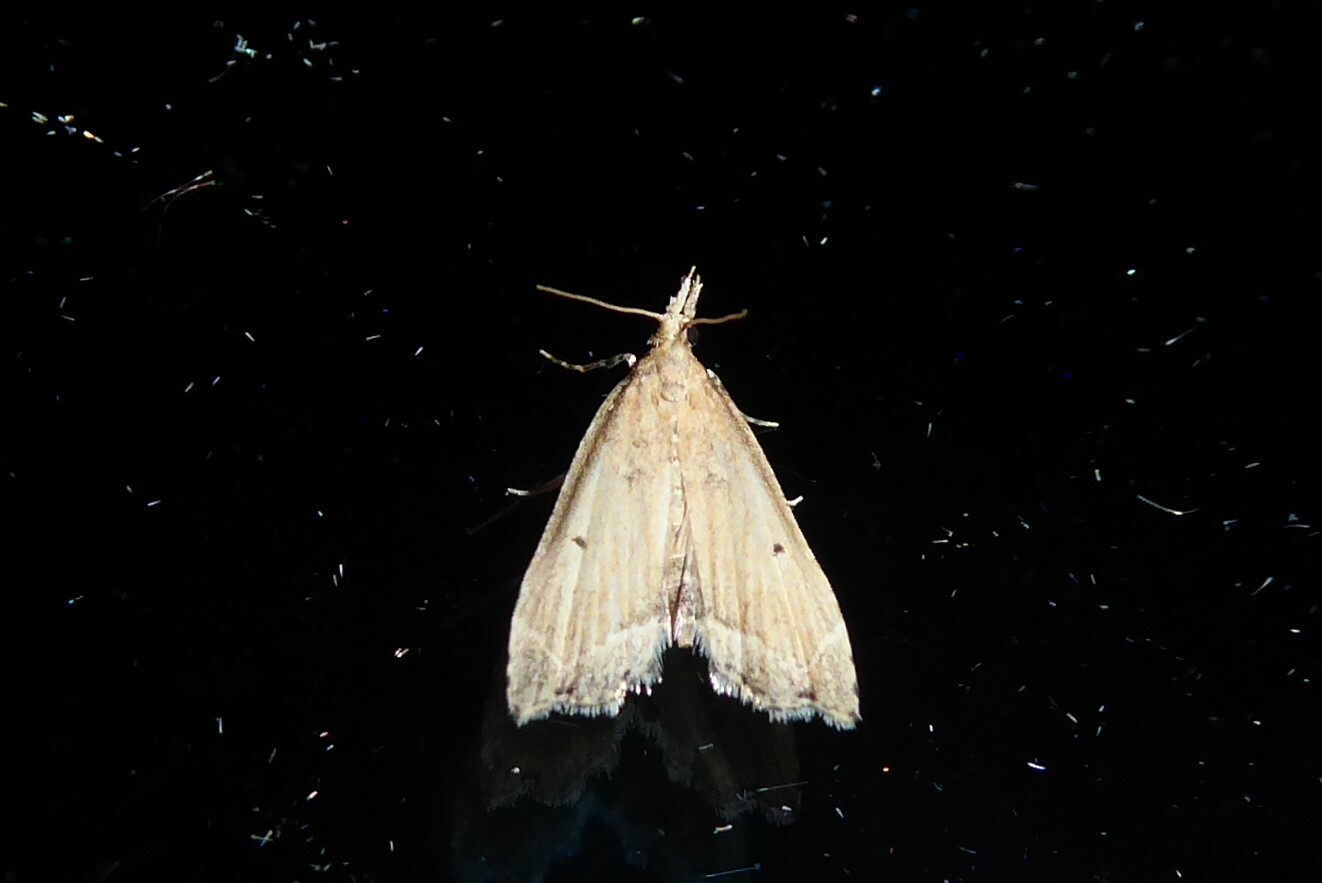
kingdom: Animalia
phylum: Arthropoda
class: Insecta
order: Lepidoptera
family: Crambidae
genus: Diplopseustis
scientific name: Diplopseustis perieresalis
